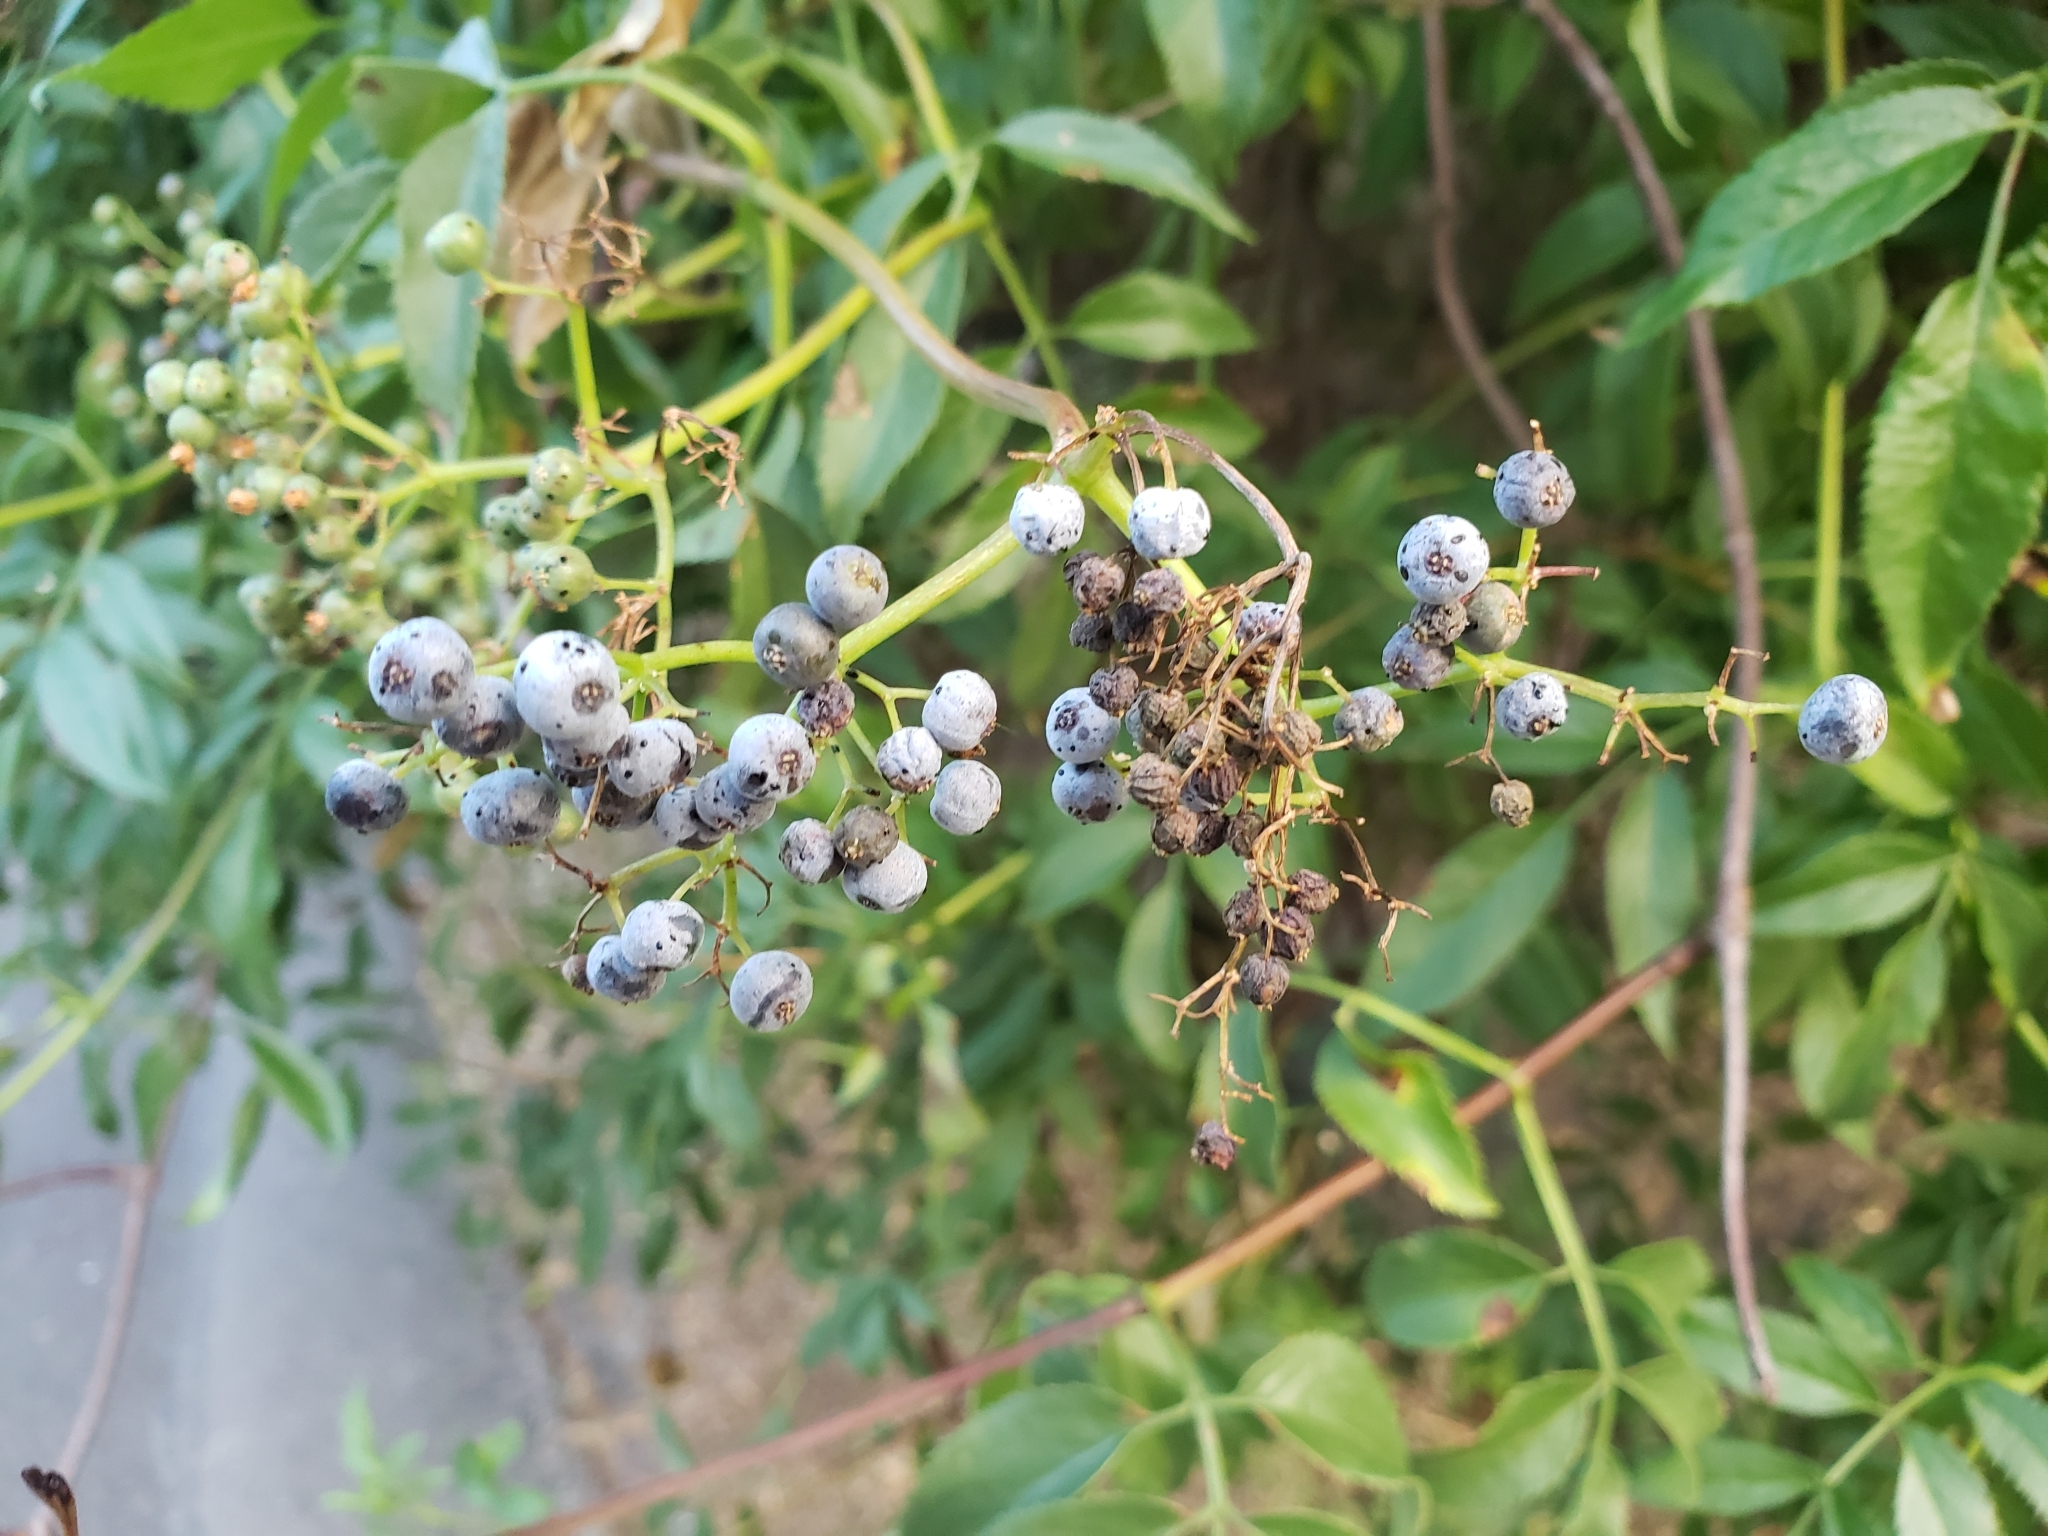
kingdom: Plantae
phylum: Tracheophyta
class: Magnoliopsida
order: Dipsacales
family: Viburnaceae
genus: Sambucus
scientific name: Sambucus cerulea
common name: Blue elder
